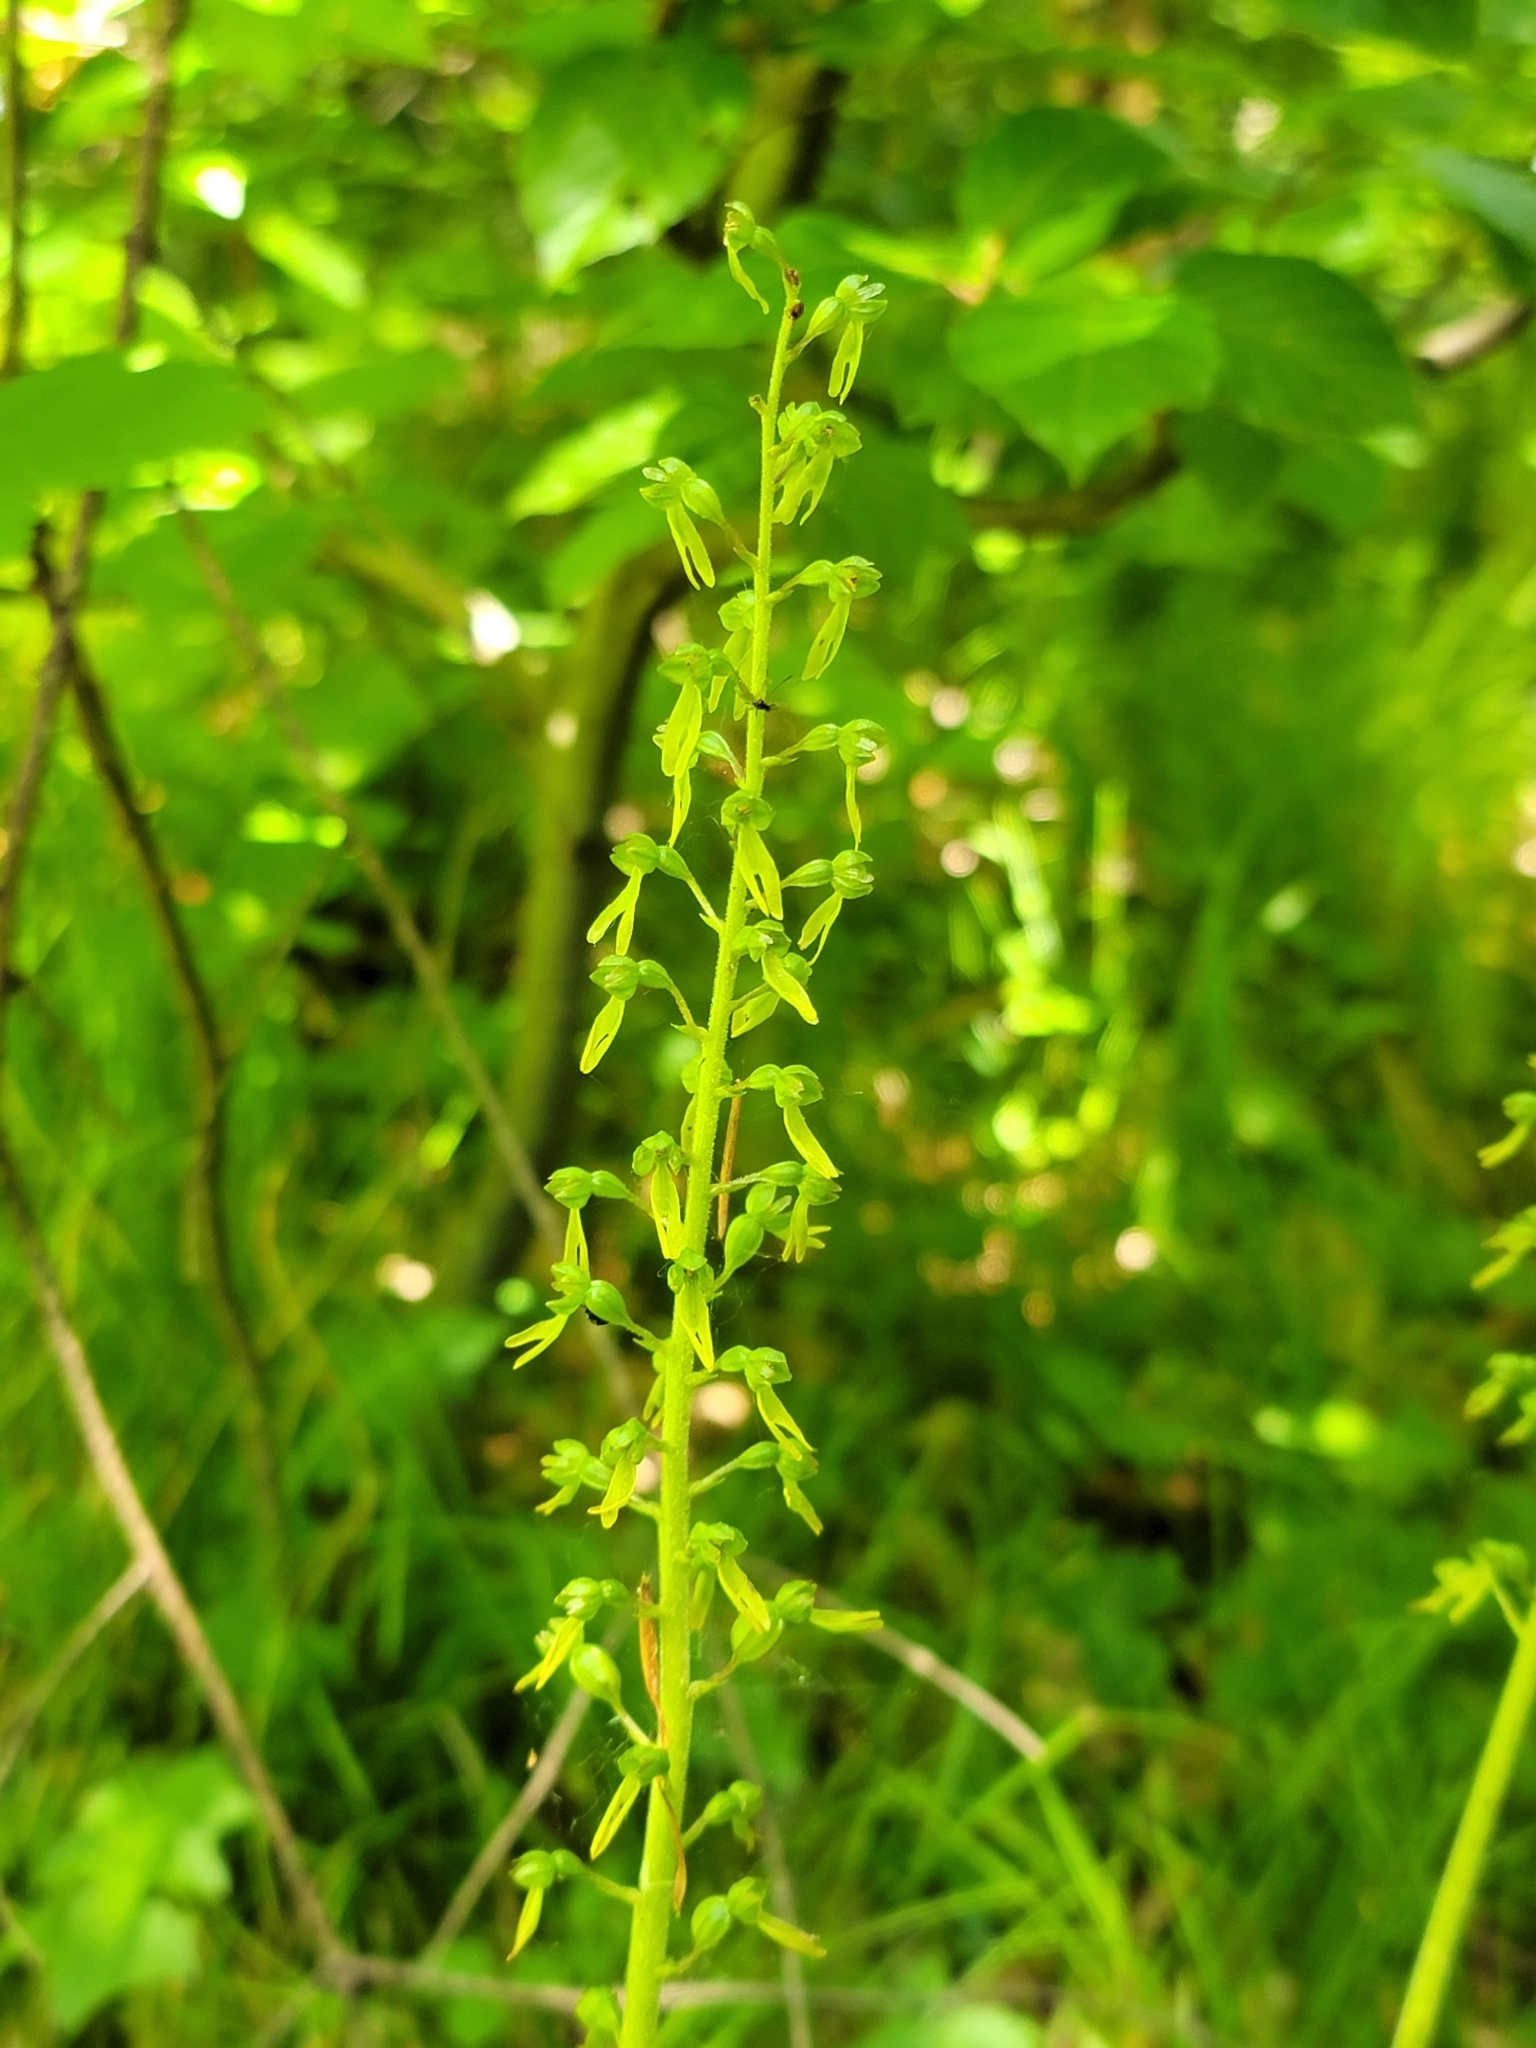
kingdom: Plantae
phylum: Tracheophyta
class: Liliopsida
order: Asparagales
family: Orchidaceae
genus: Neottia
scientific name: Neottia ovata
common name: Common twayblade
